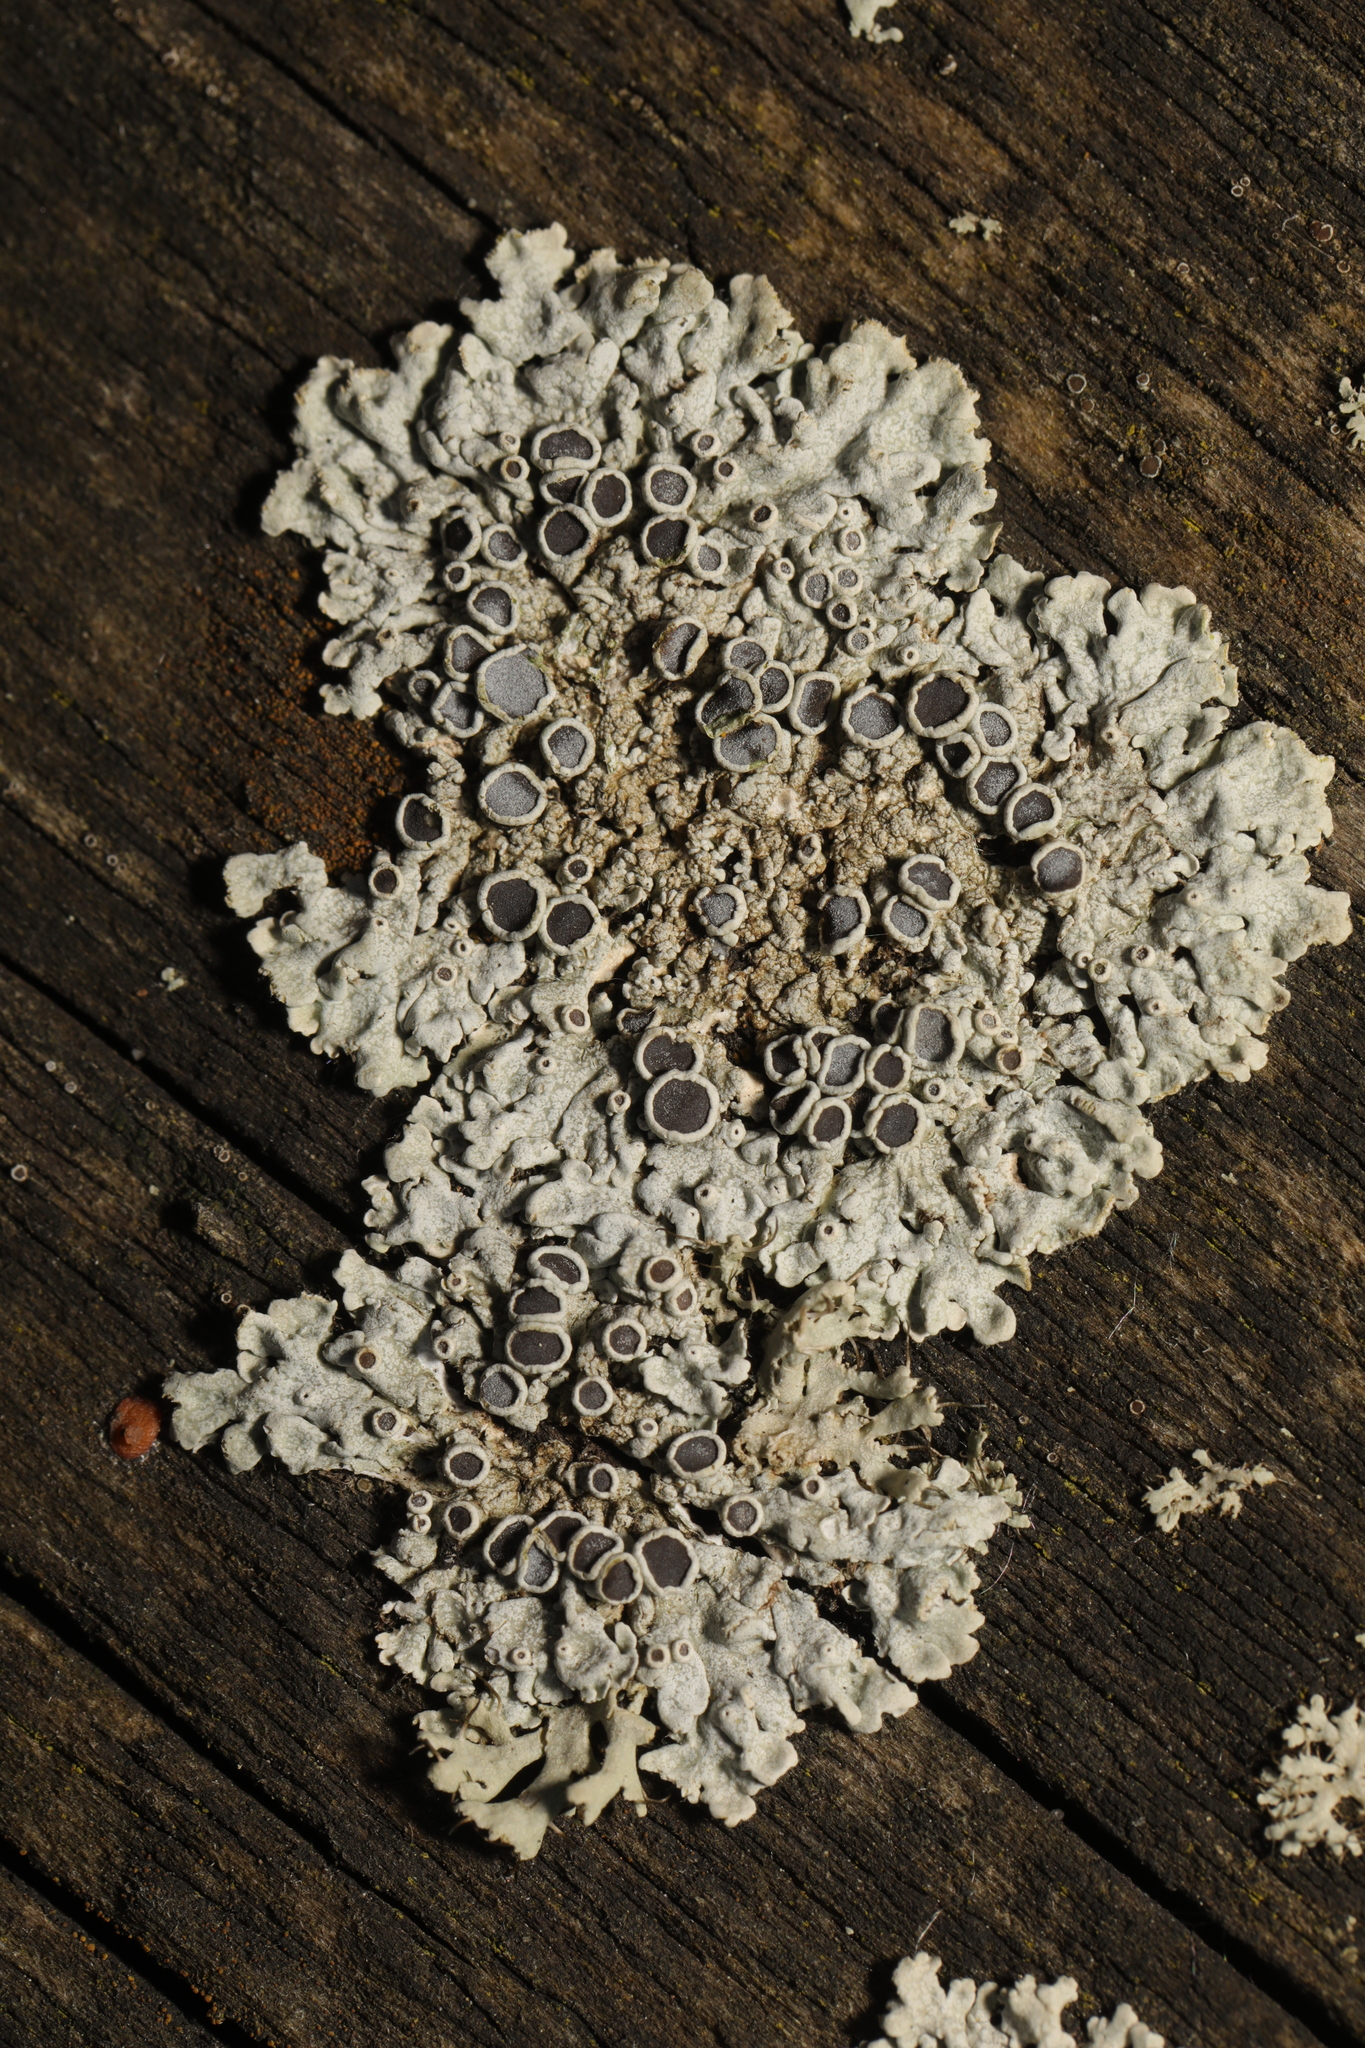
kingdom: Fungi
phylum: Ascomycota
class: Lecanoromycetes
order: Caliciales
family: Physciaceae
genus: Physcia
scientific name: Physcia aipolia
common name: Hoary rosette lichen
